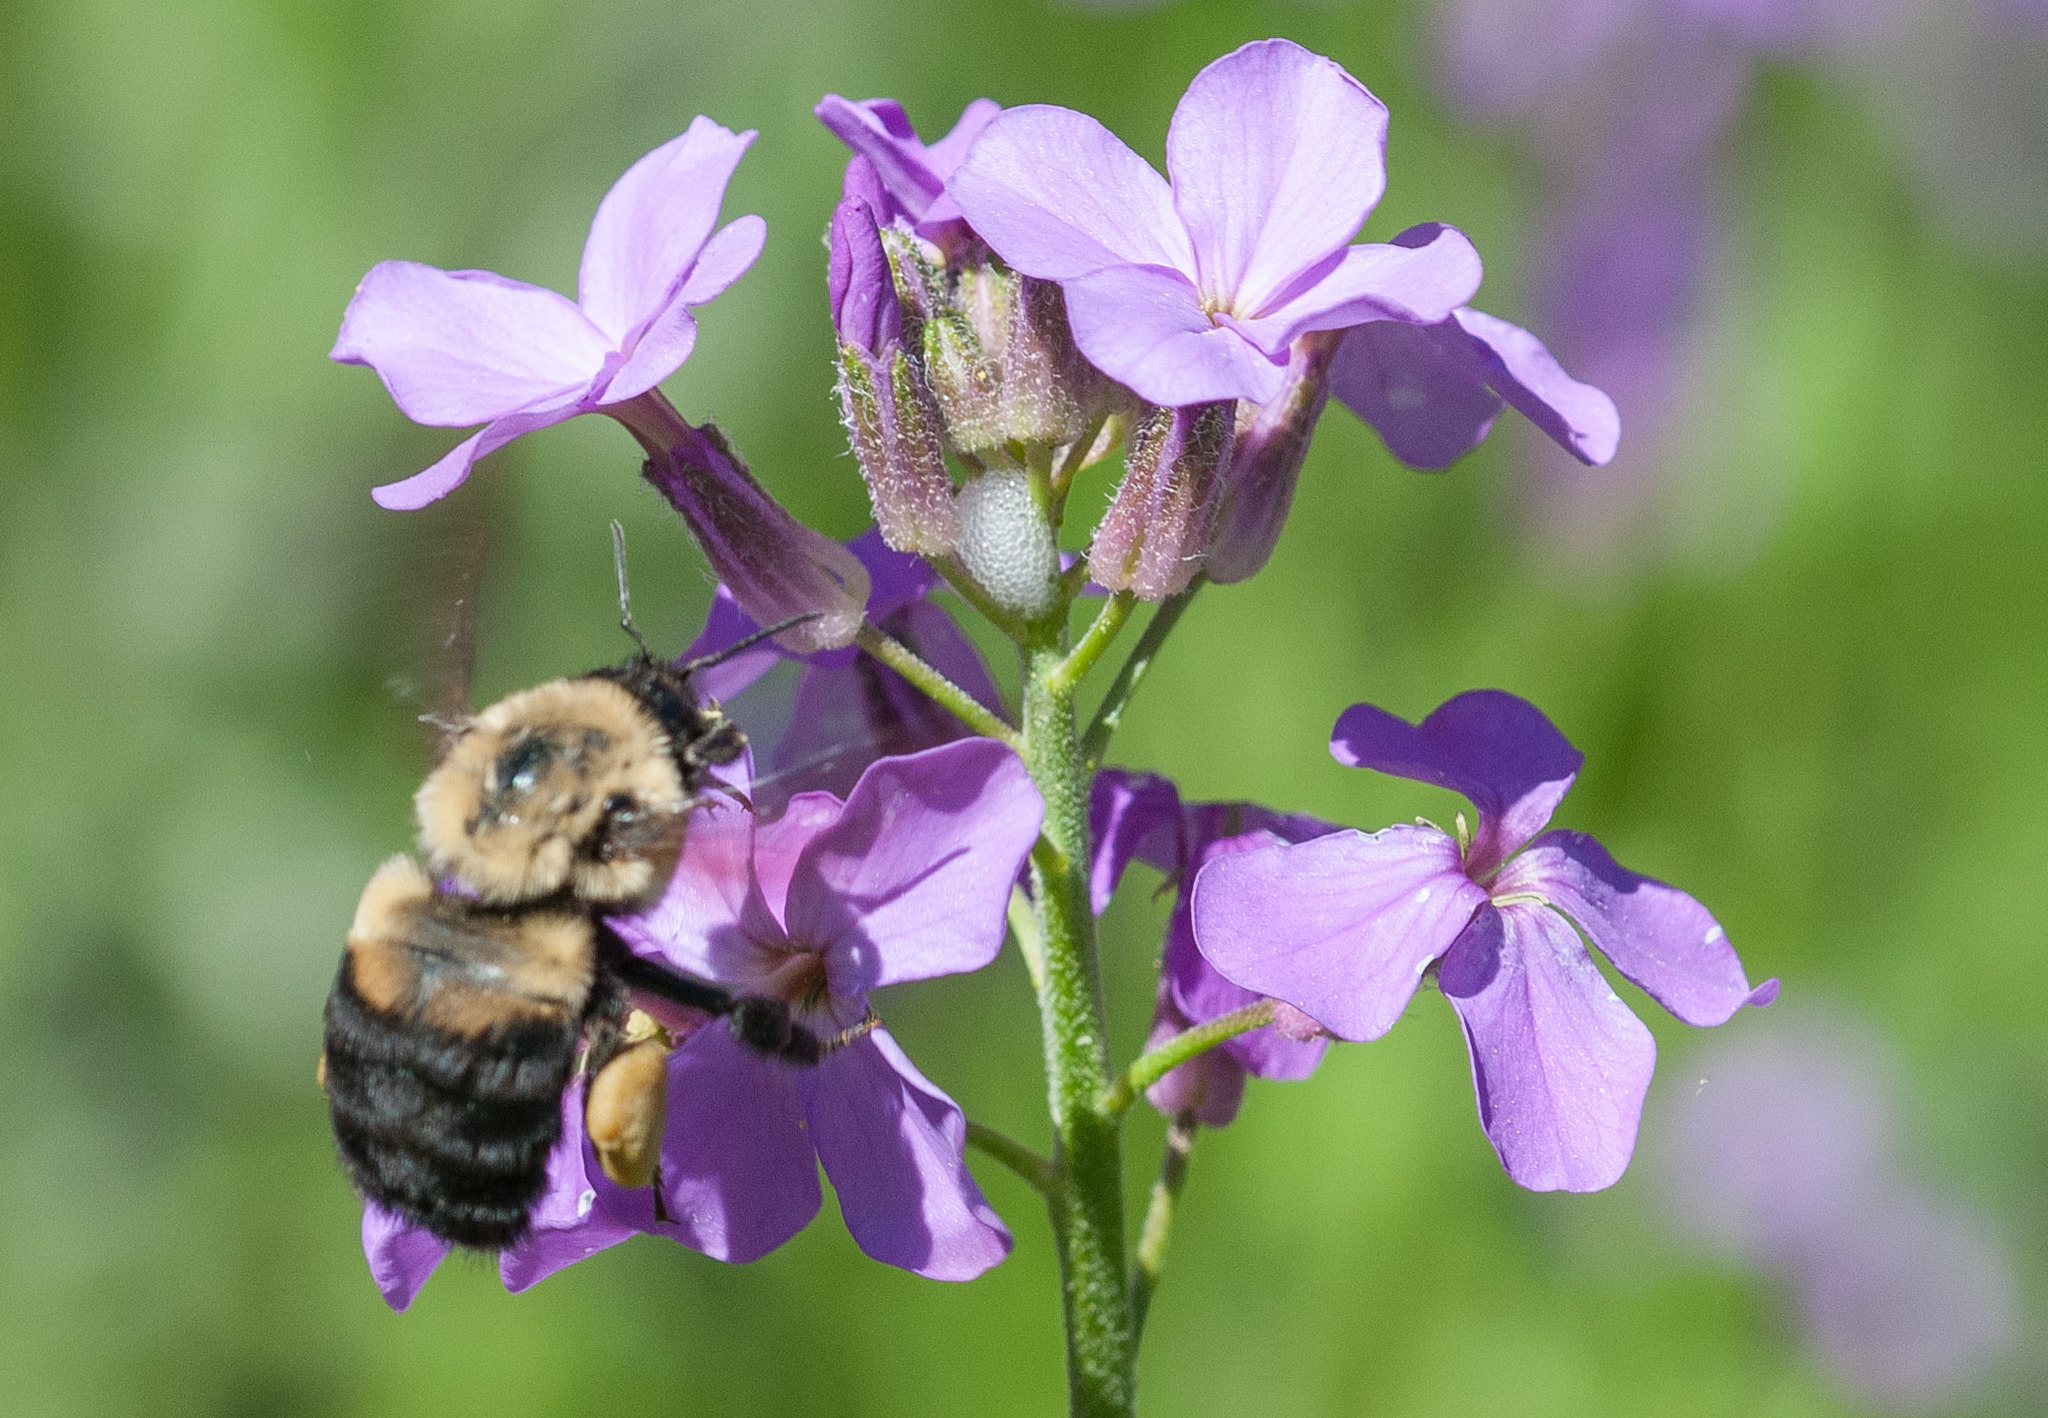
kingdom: Animalia
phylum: Arthropoda
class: Insecta
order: Hymenoptera
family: Apidae
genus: Bombus
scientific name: Bombus griseocollis
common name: Brown-belted bumble bee
